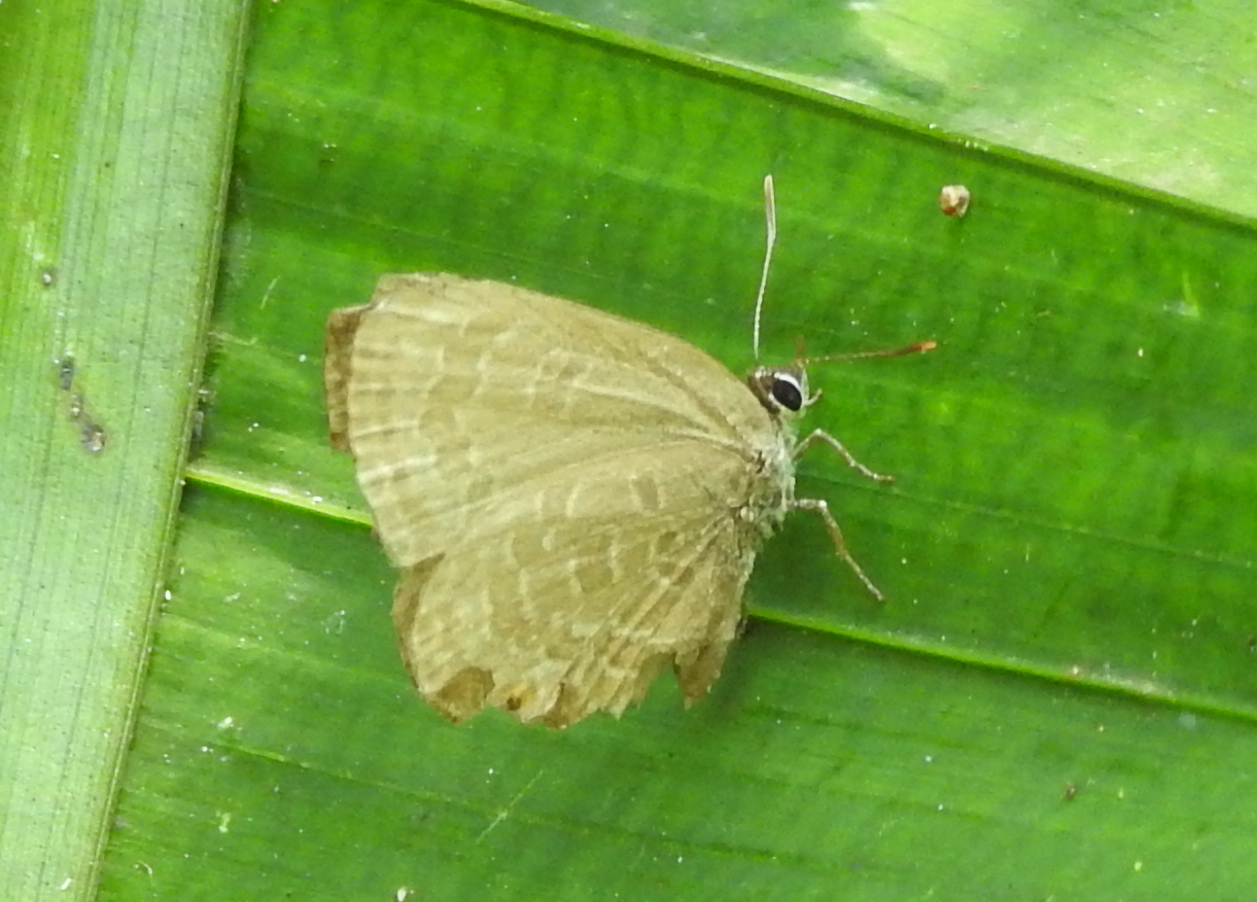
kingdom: Animalia
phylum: Arthropoda
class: Insecta
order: Lepidoptera
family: Lycaenidae
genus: Anthene
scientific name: Anthene emolus
